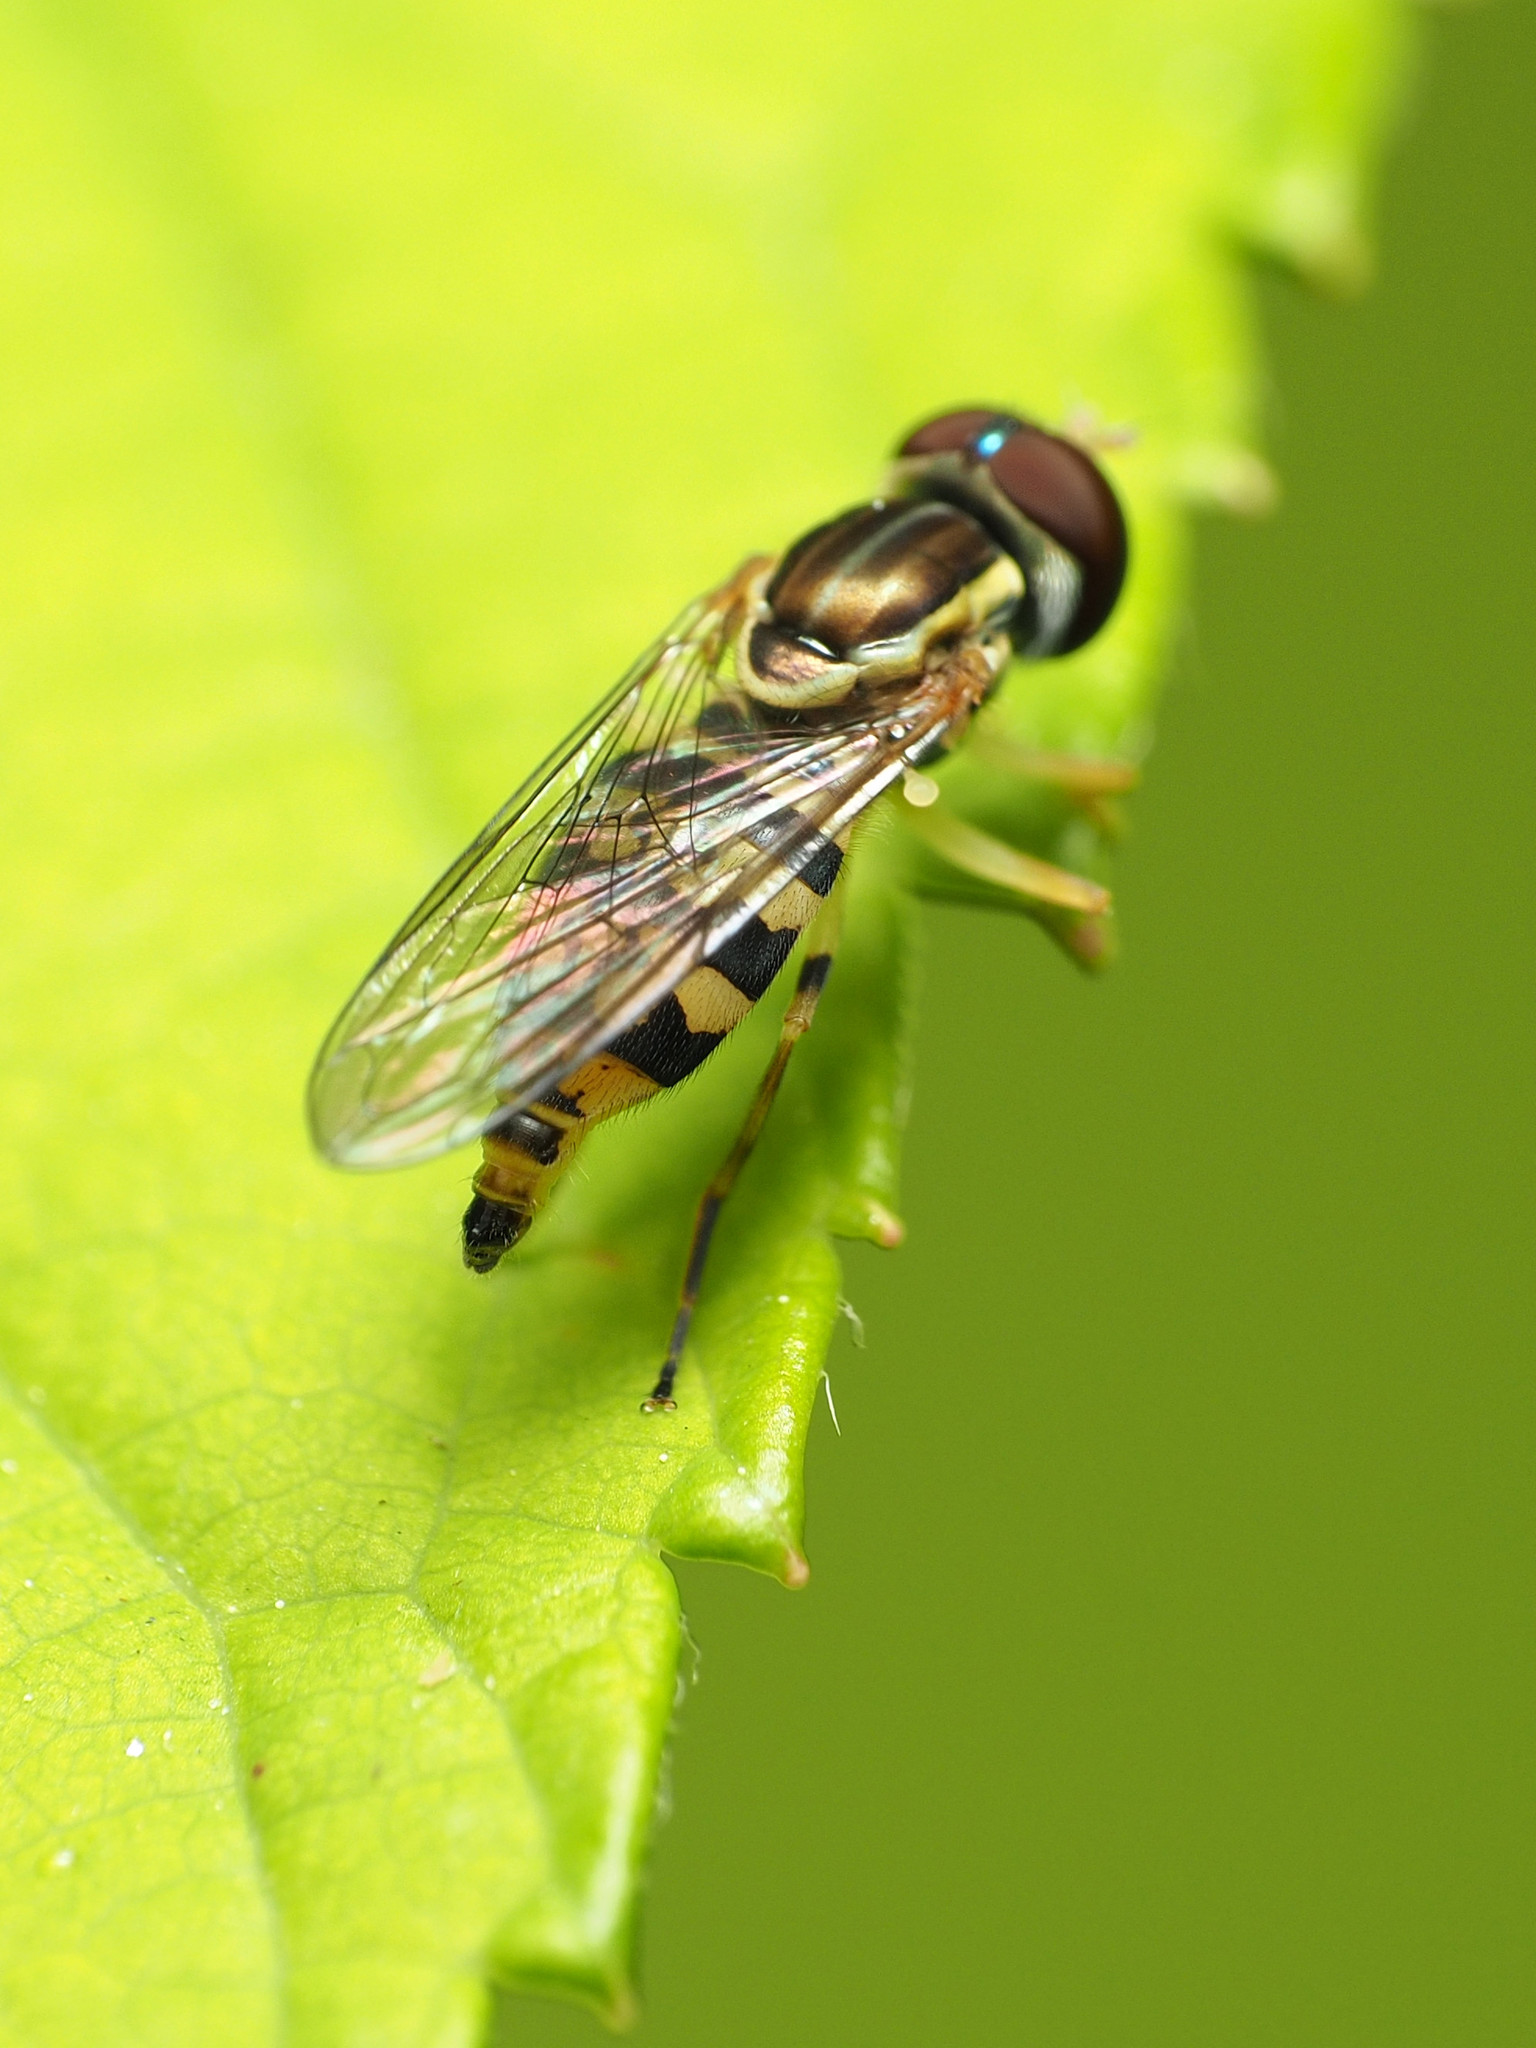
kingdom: Animalia
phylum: Arthropoda
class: Insecta
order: Diptera
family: Syrphidae
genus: Toxomerus
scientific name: Toxomerus geminatus
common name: Eastern calligrapher
